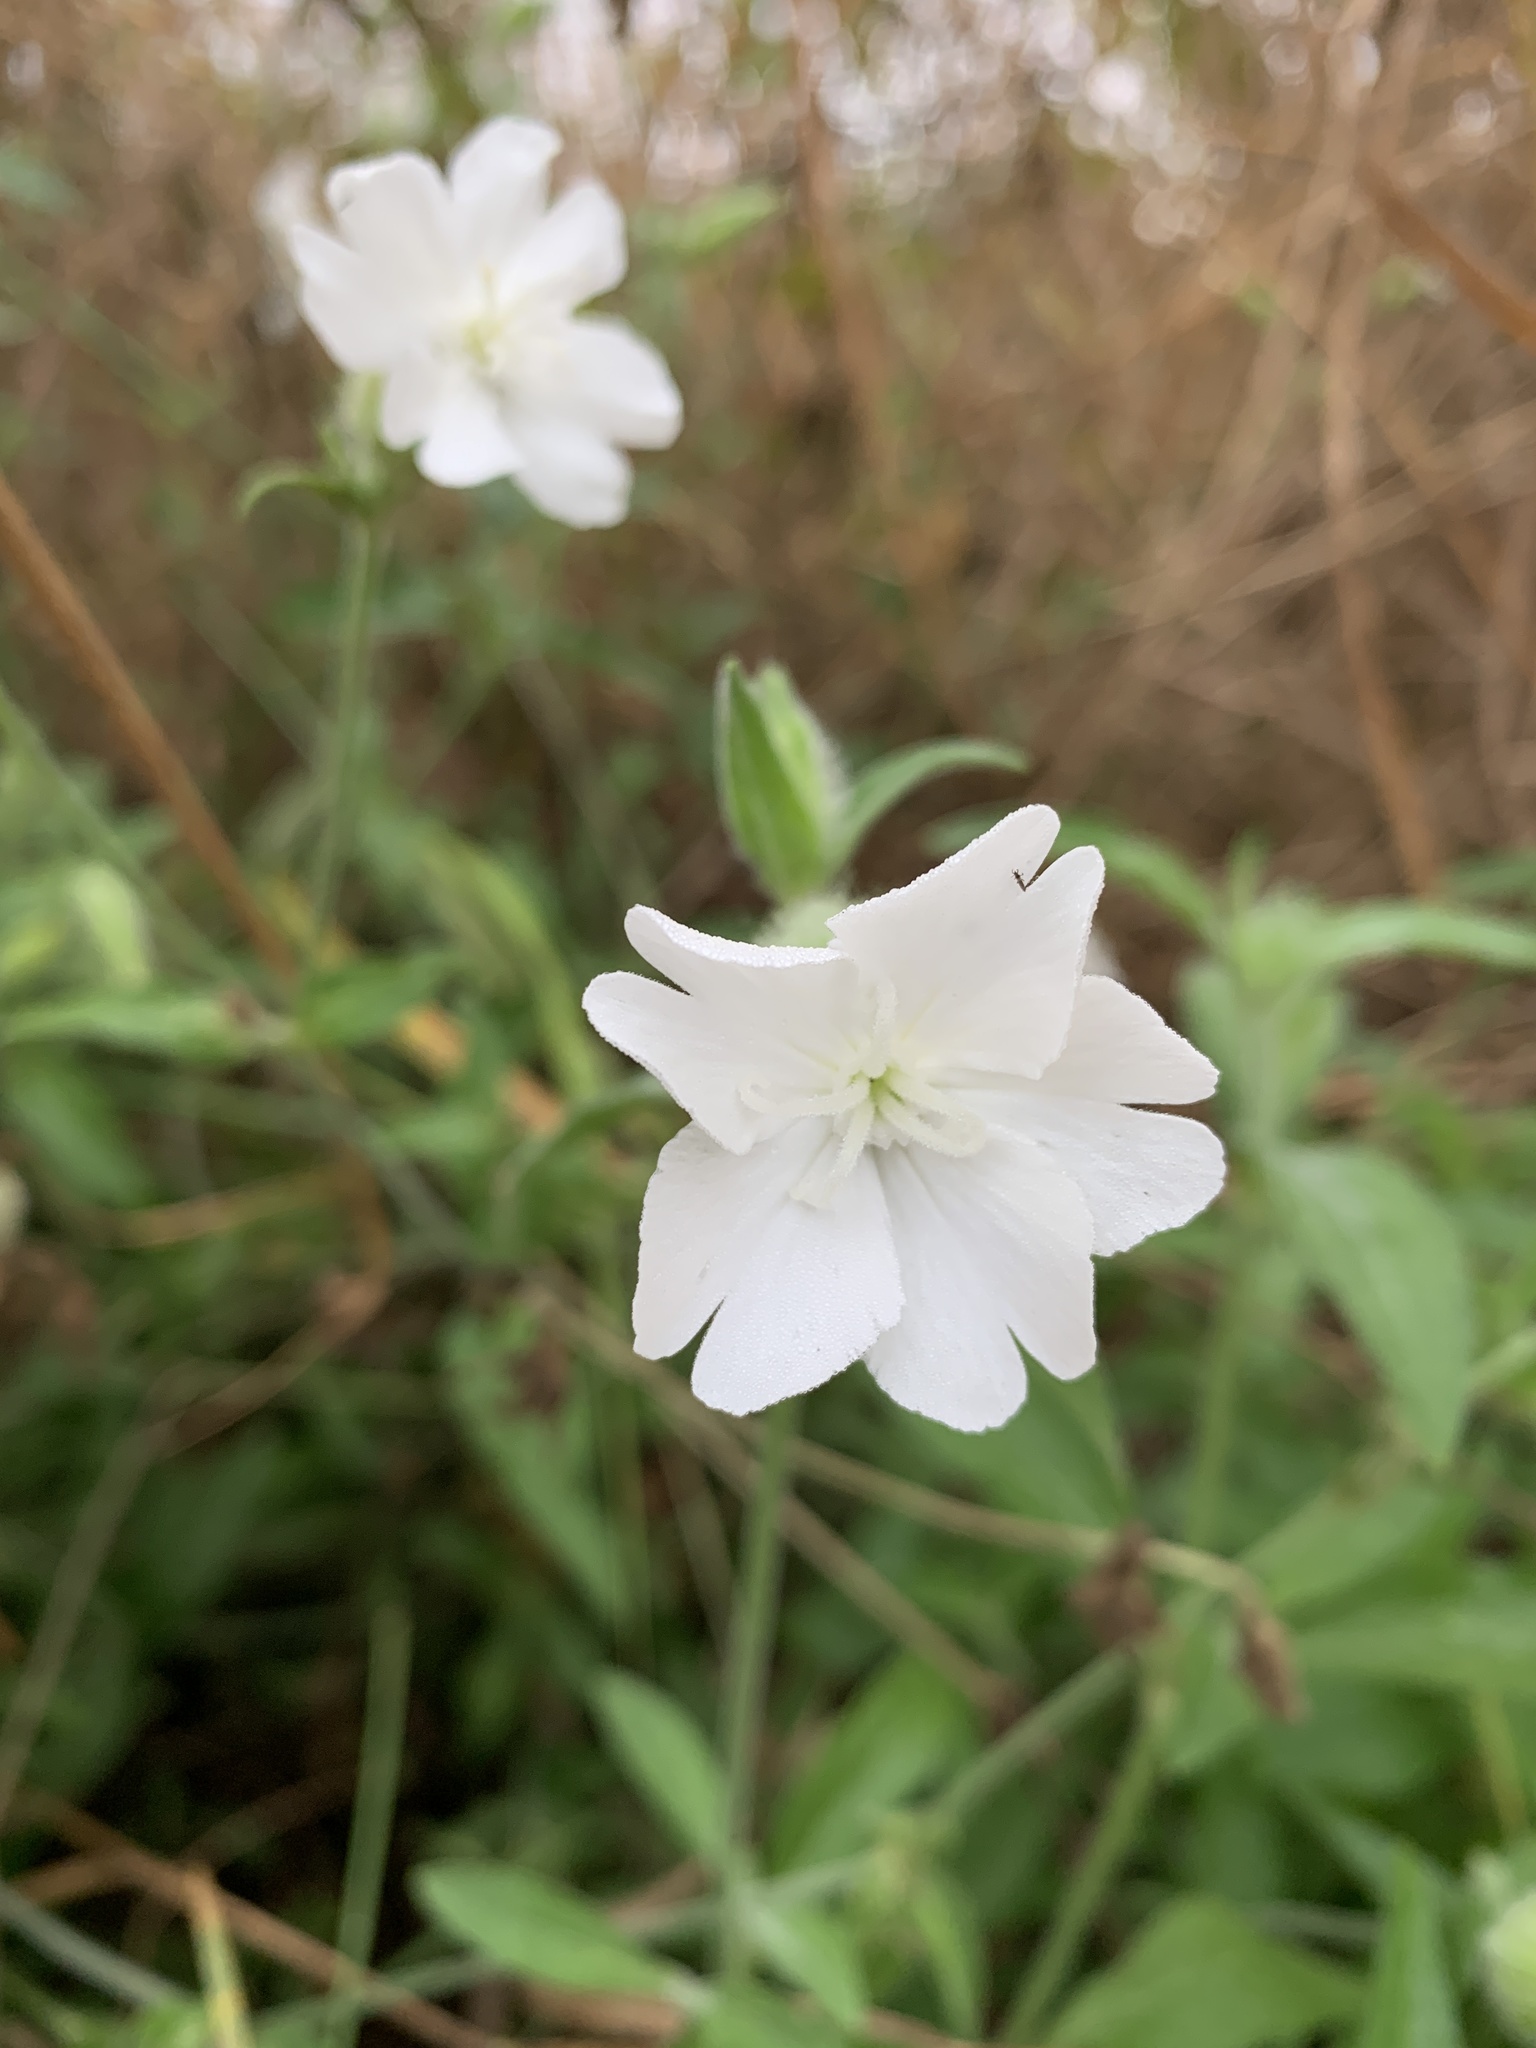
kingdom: Plantae
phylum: Tracheophyta
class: Magnoliopsida
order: Caryophyllales
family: Caryophyllaceae
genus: Silene
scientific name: Silene latifolia
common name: White campion
